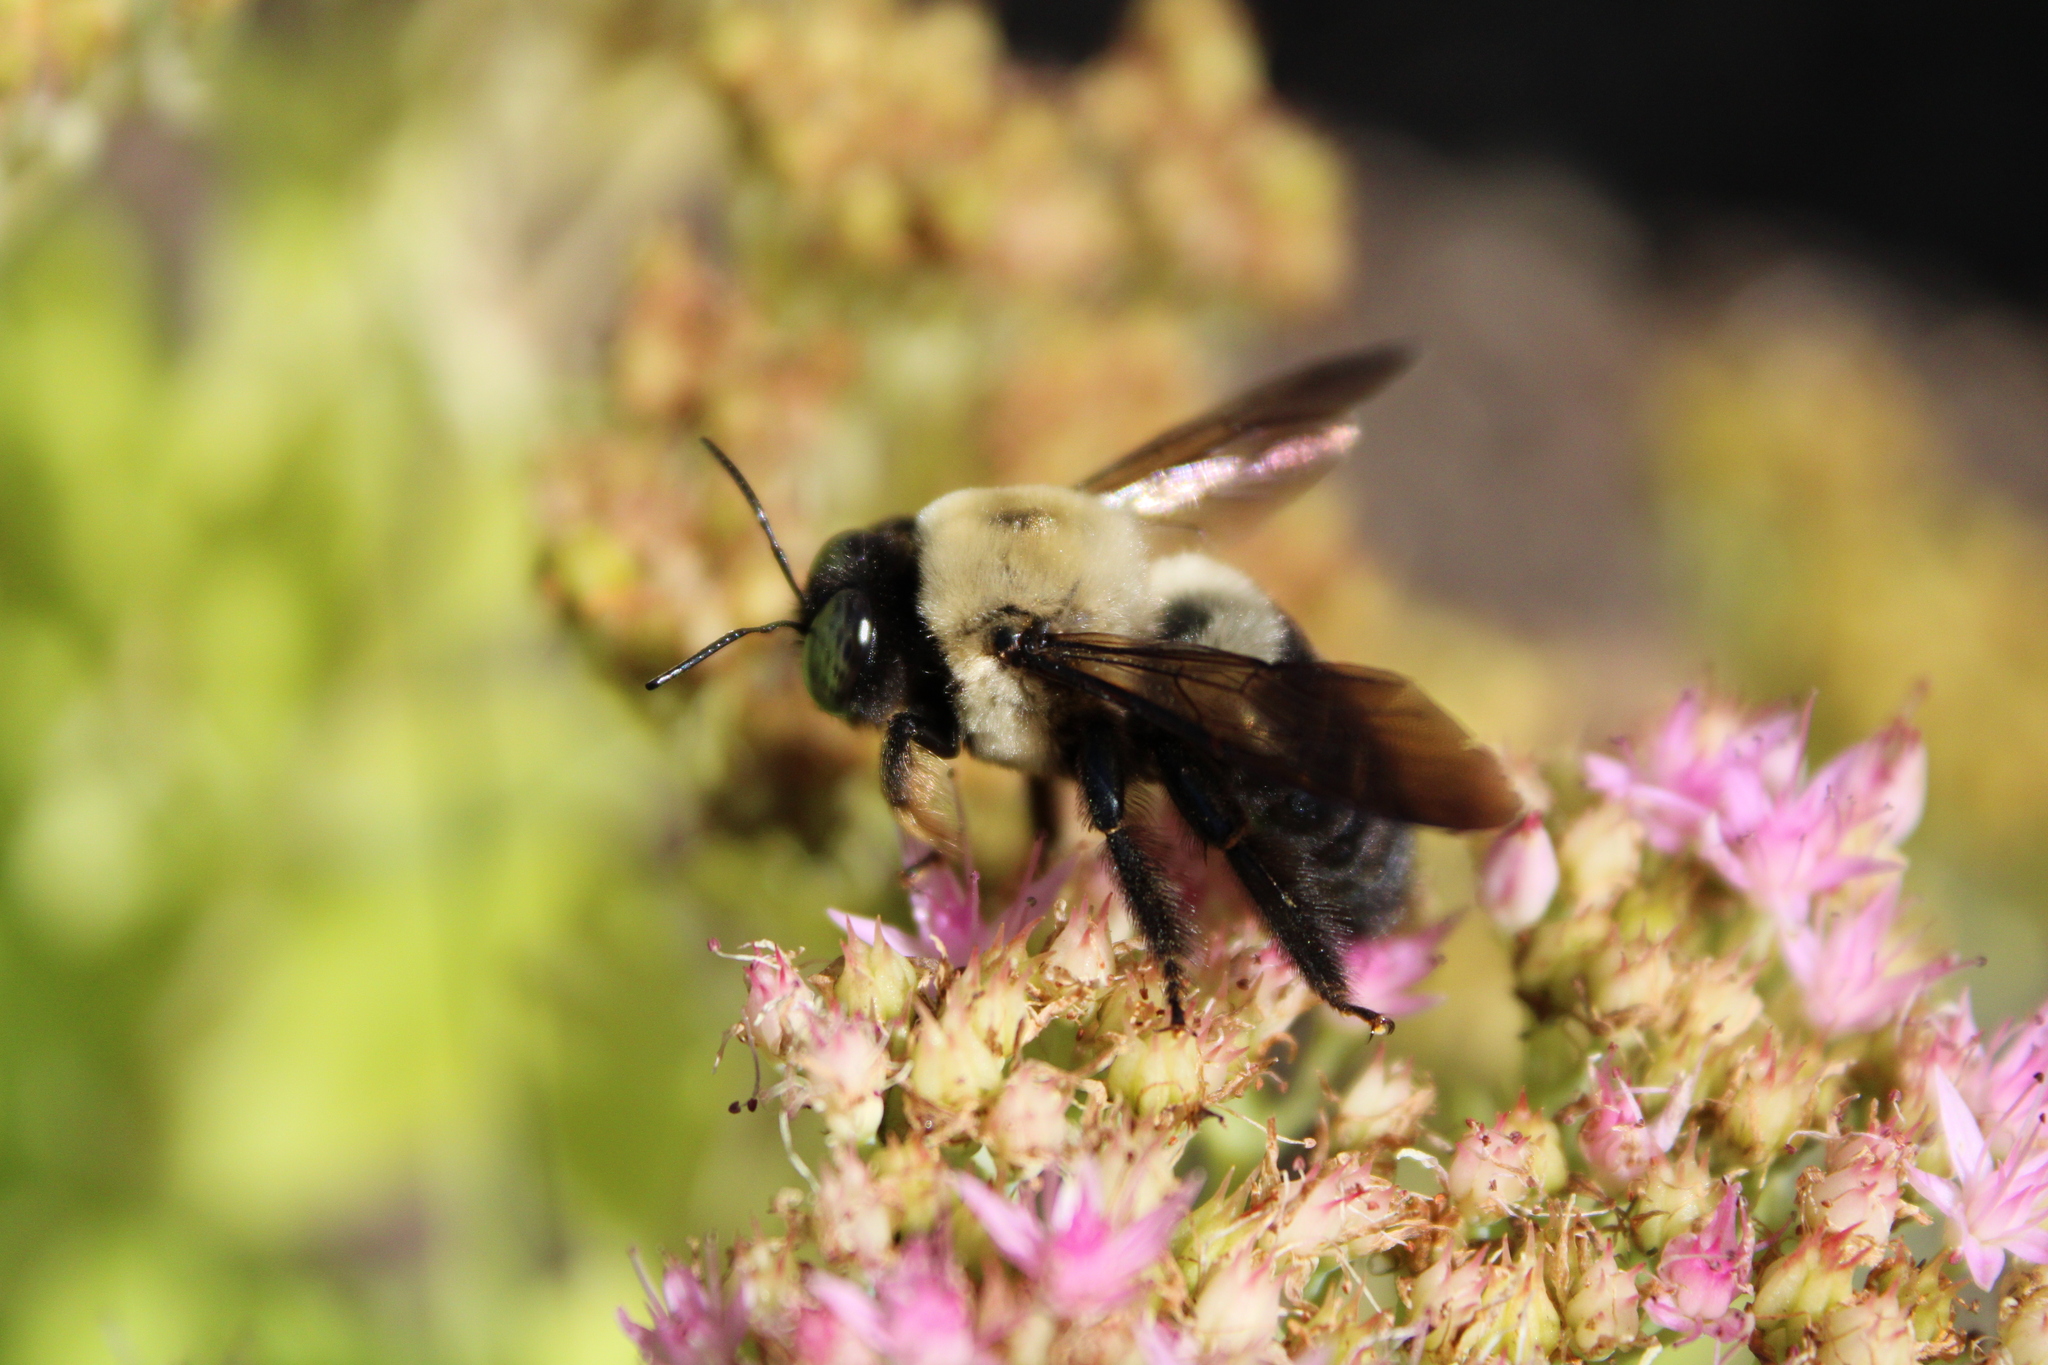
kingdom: Animalia
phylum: Arthropoda
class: Insecta
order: Hymenoptera
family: Apidae
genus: Xylocopa
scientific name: Xylocopa virginica
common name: Carpenter bee
